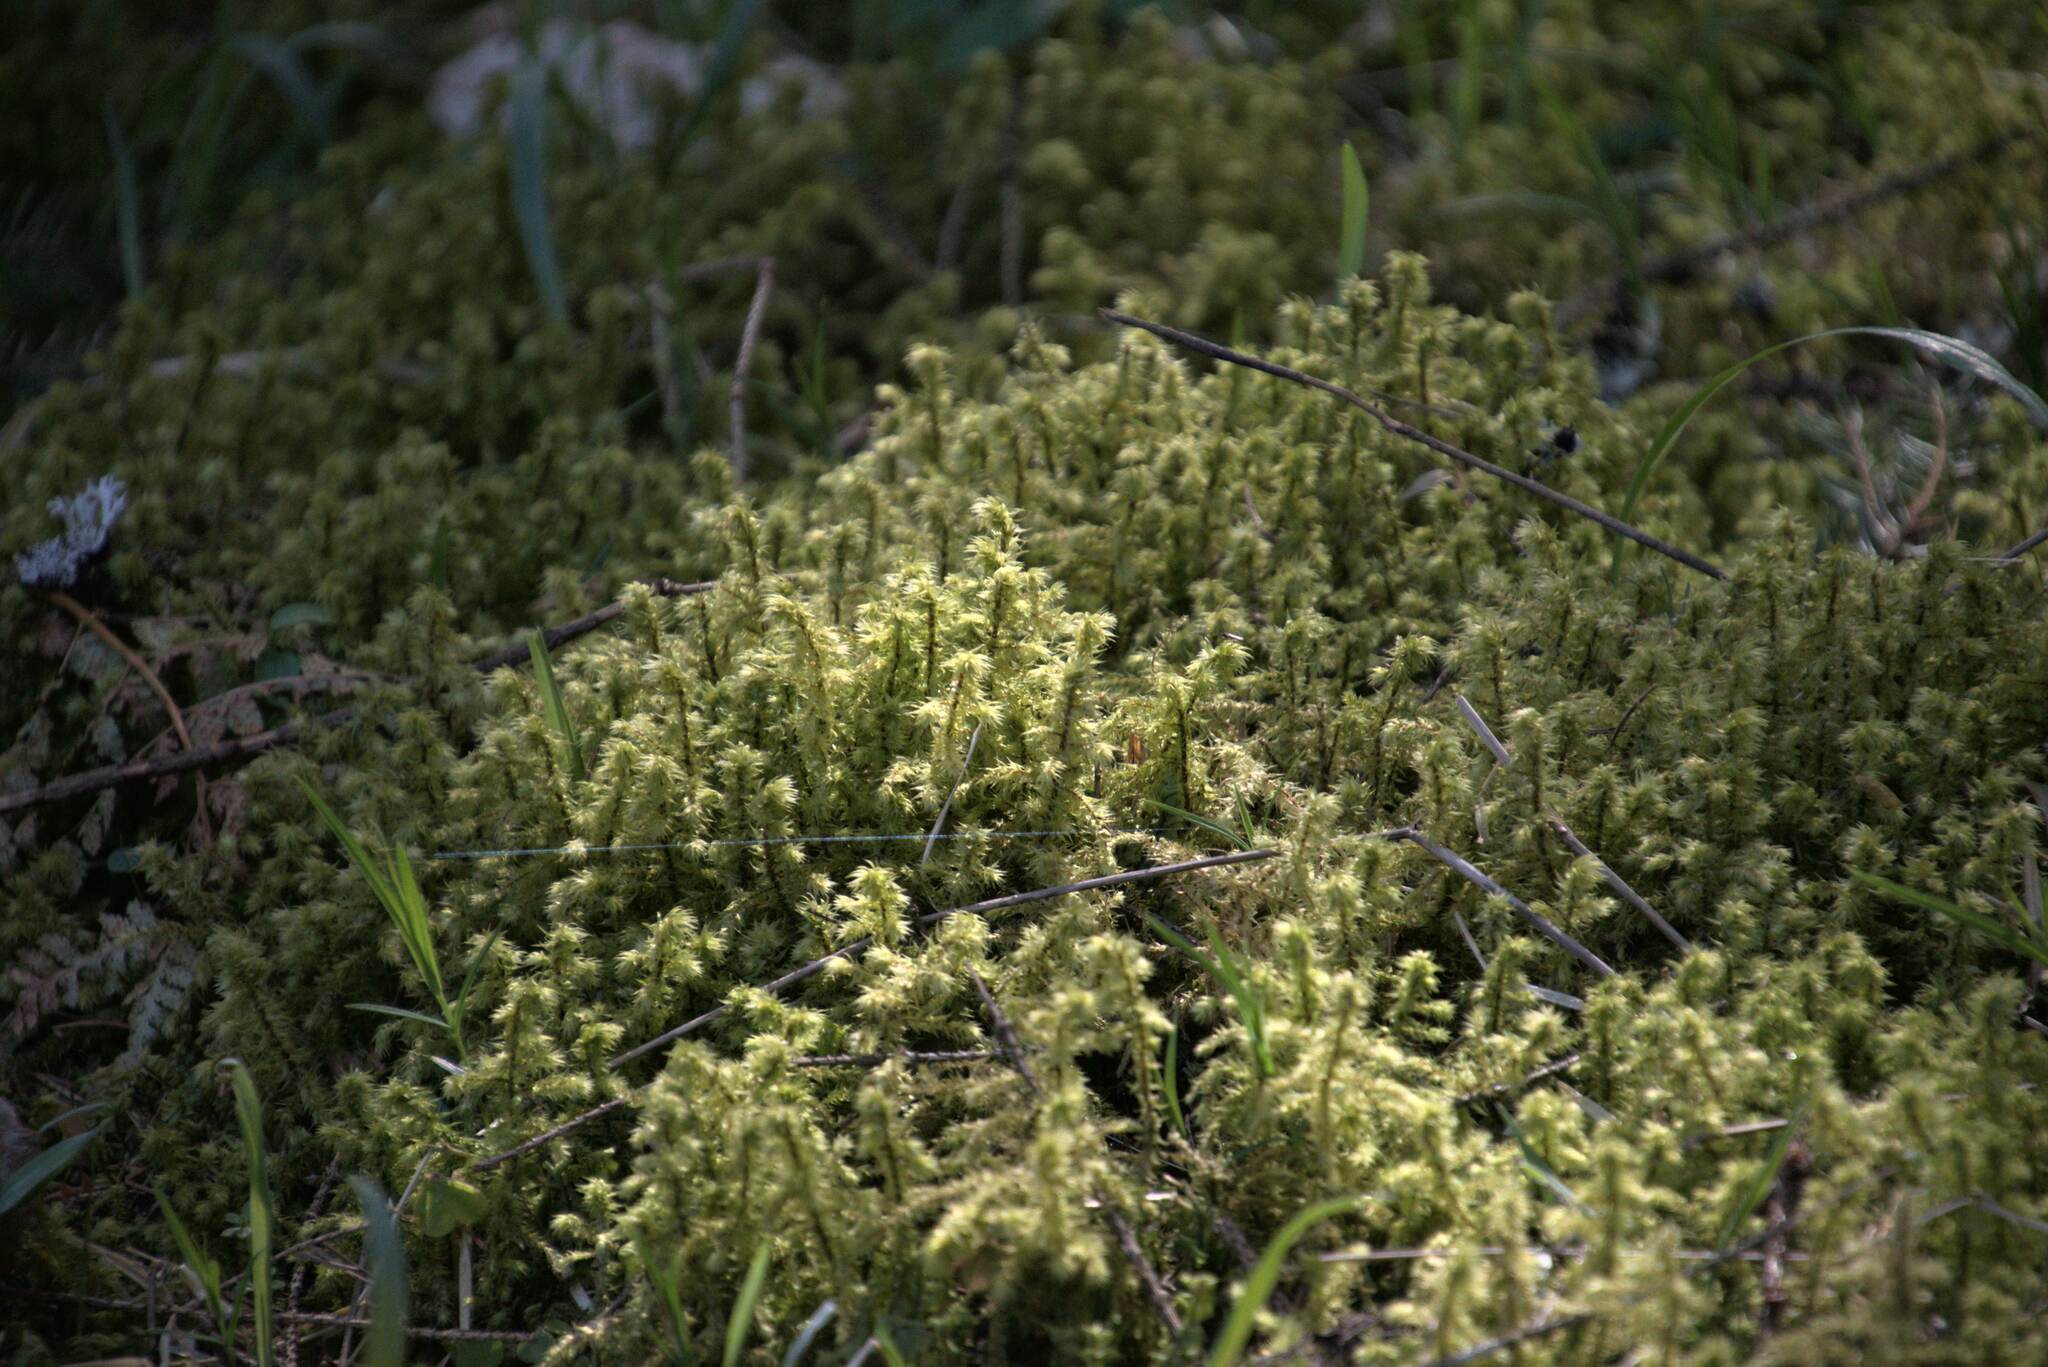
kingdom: Plantae
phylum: Bryophyta
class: Bryopsida
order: Hypnales
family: Hylocomiaceae
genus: Hylocomiadelphus
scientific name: Hylocomiadelphus triquetrus
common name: Rough goose neck moss
